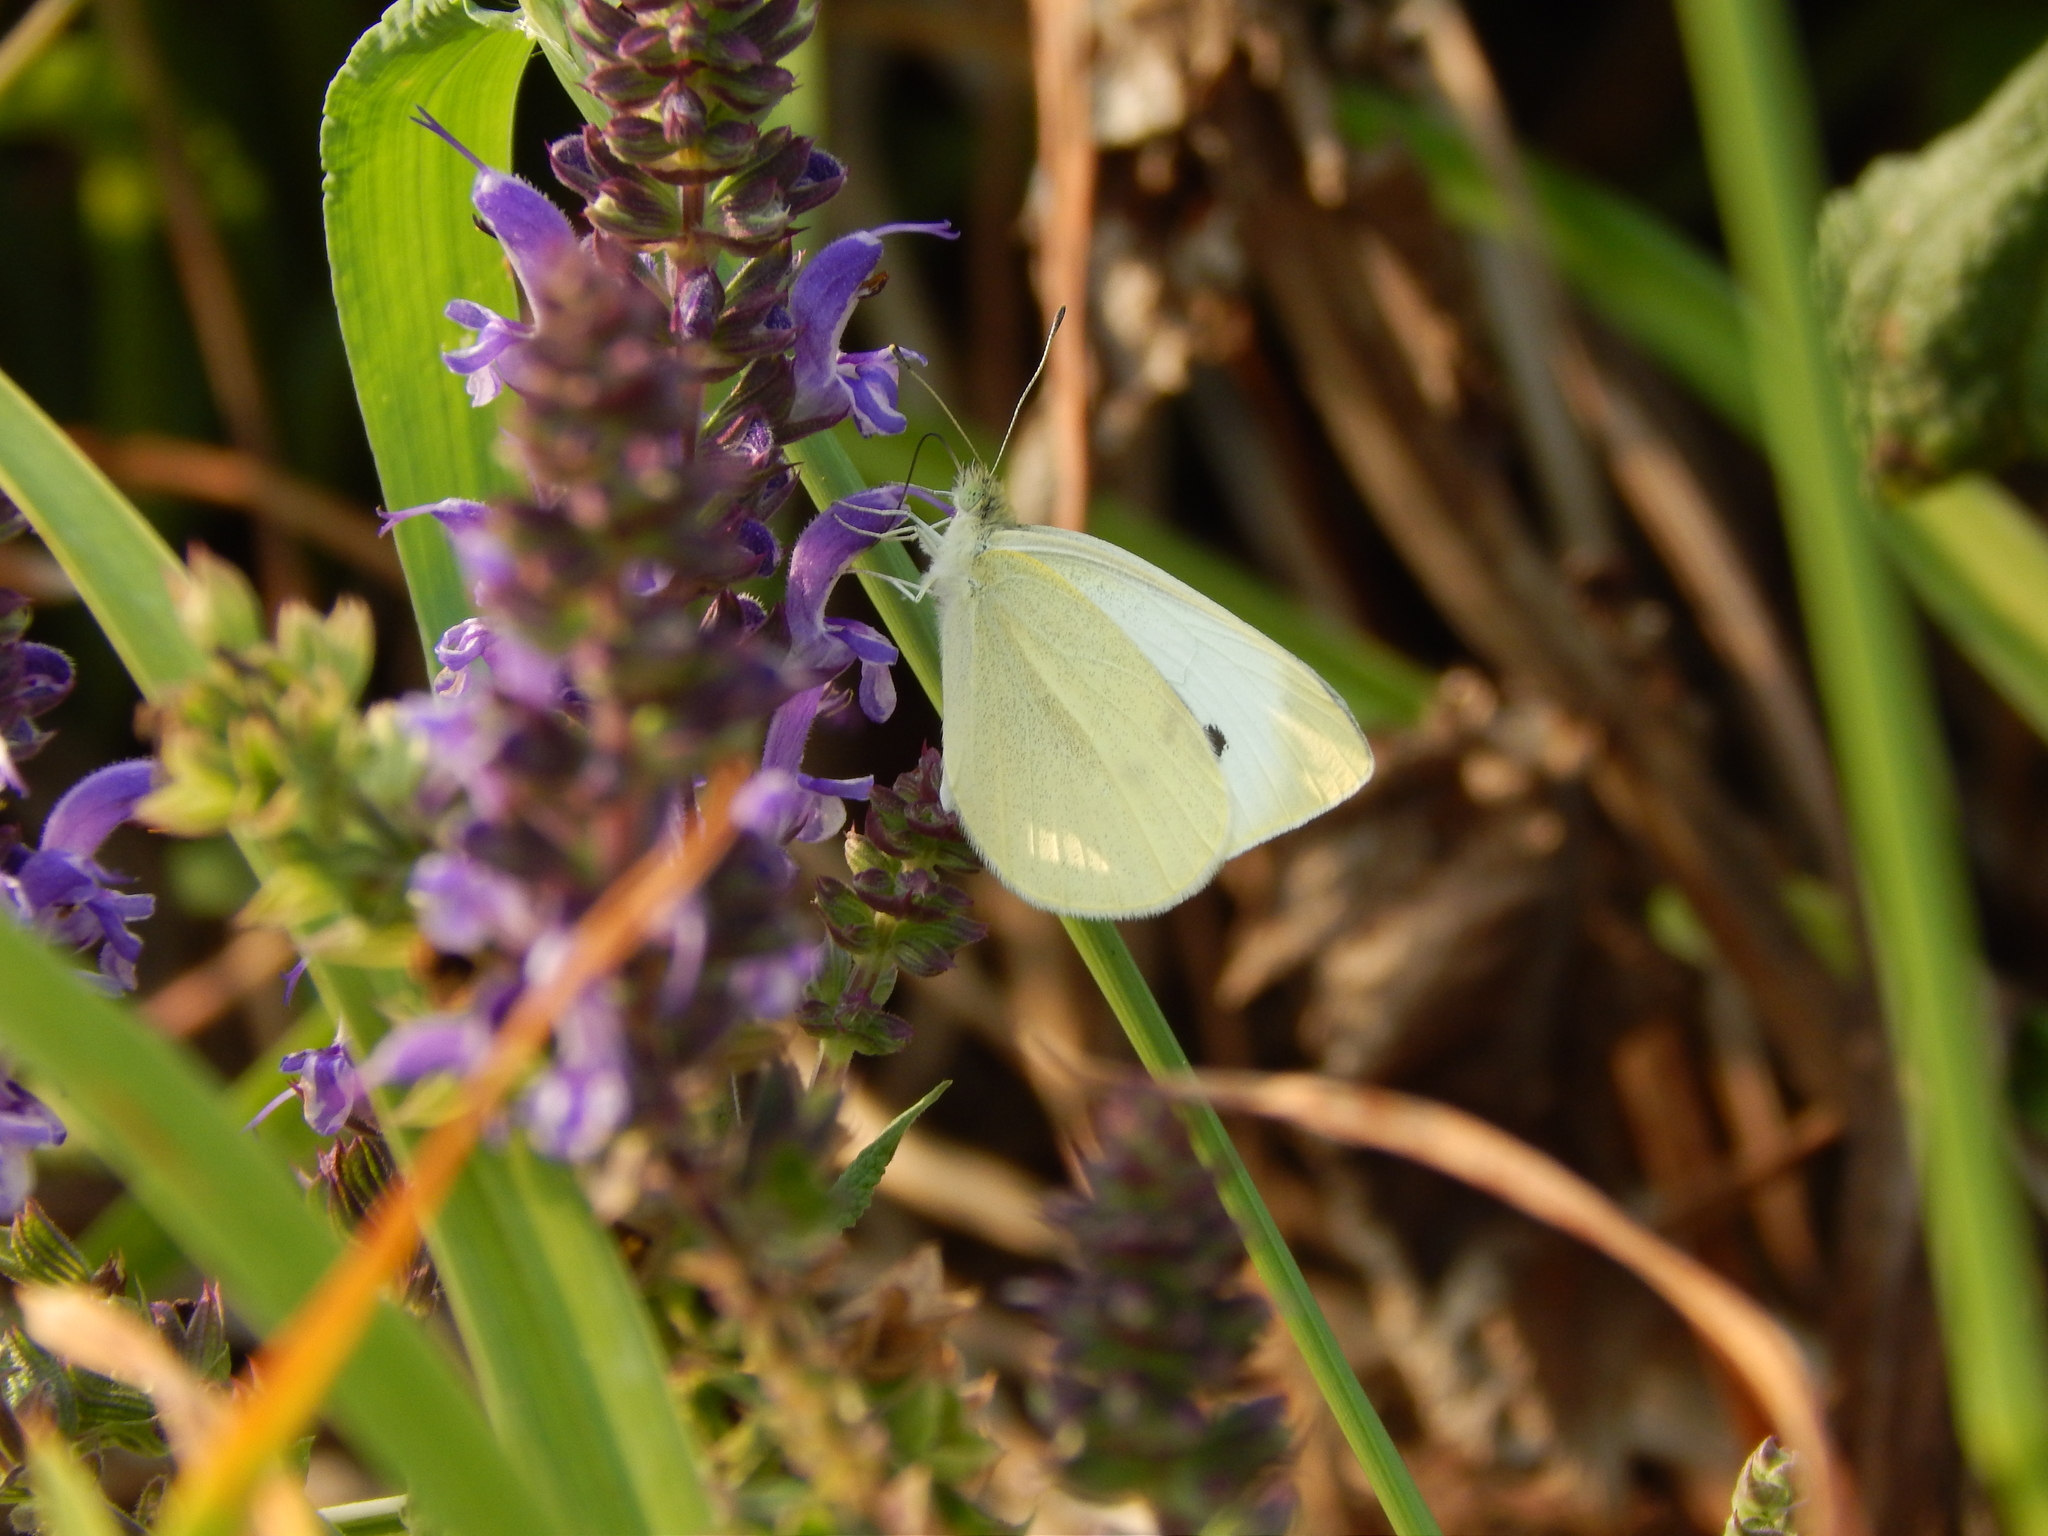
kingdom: Animalia
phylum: Arthropoda
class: Insecta
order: Lepidoptera
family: Pieridae
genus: Pieris
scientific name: Pieris rapae
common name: Small white
